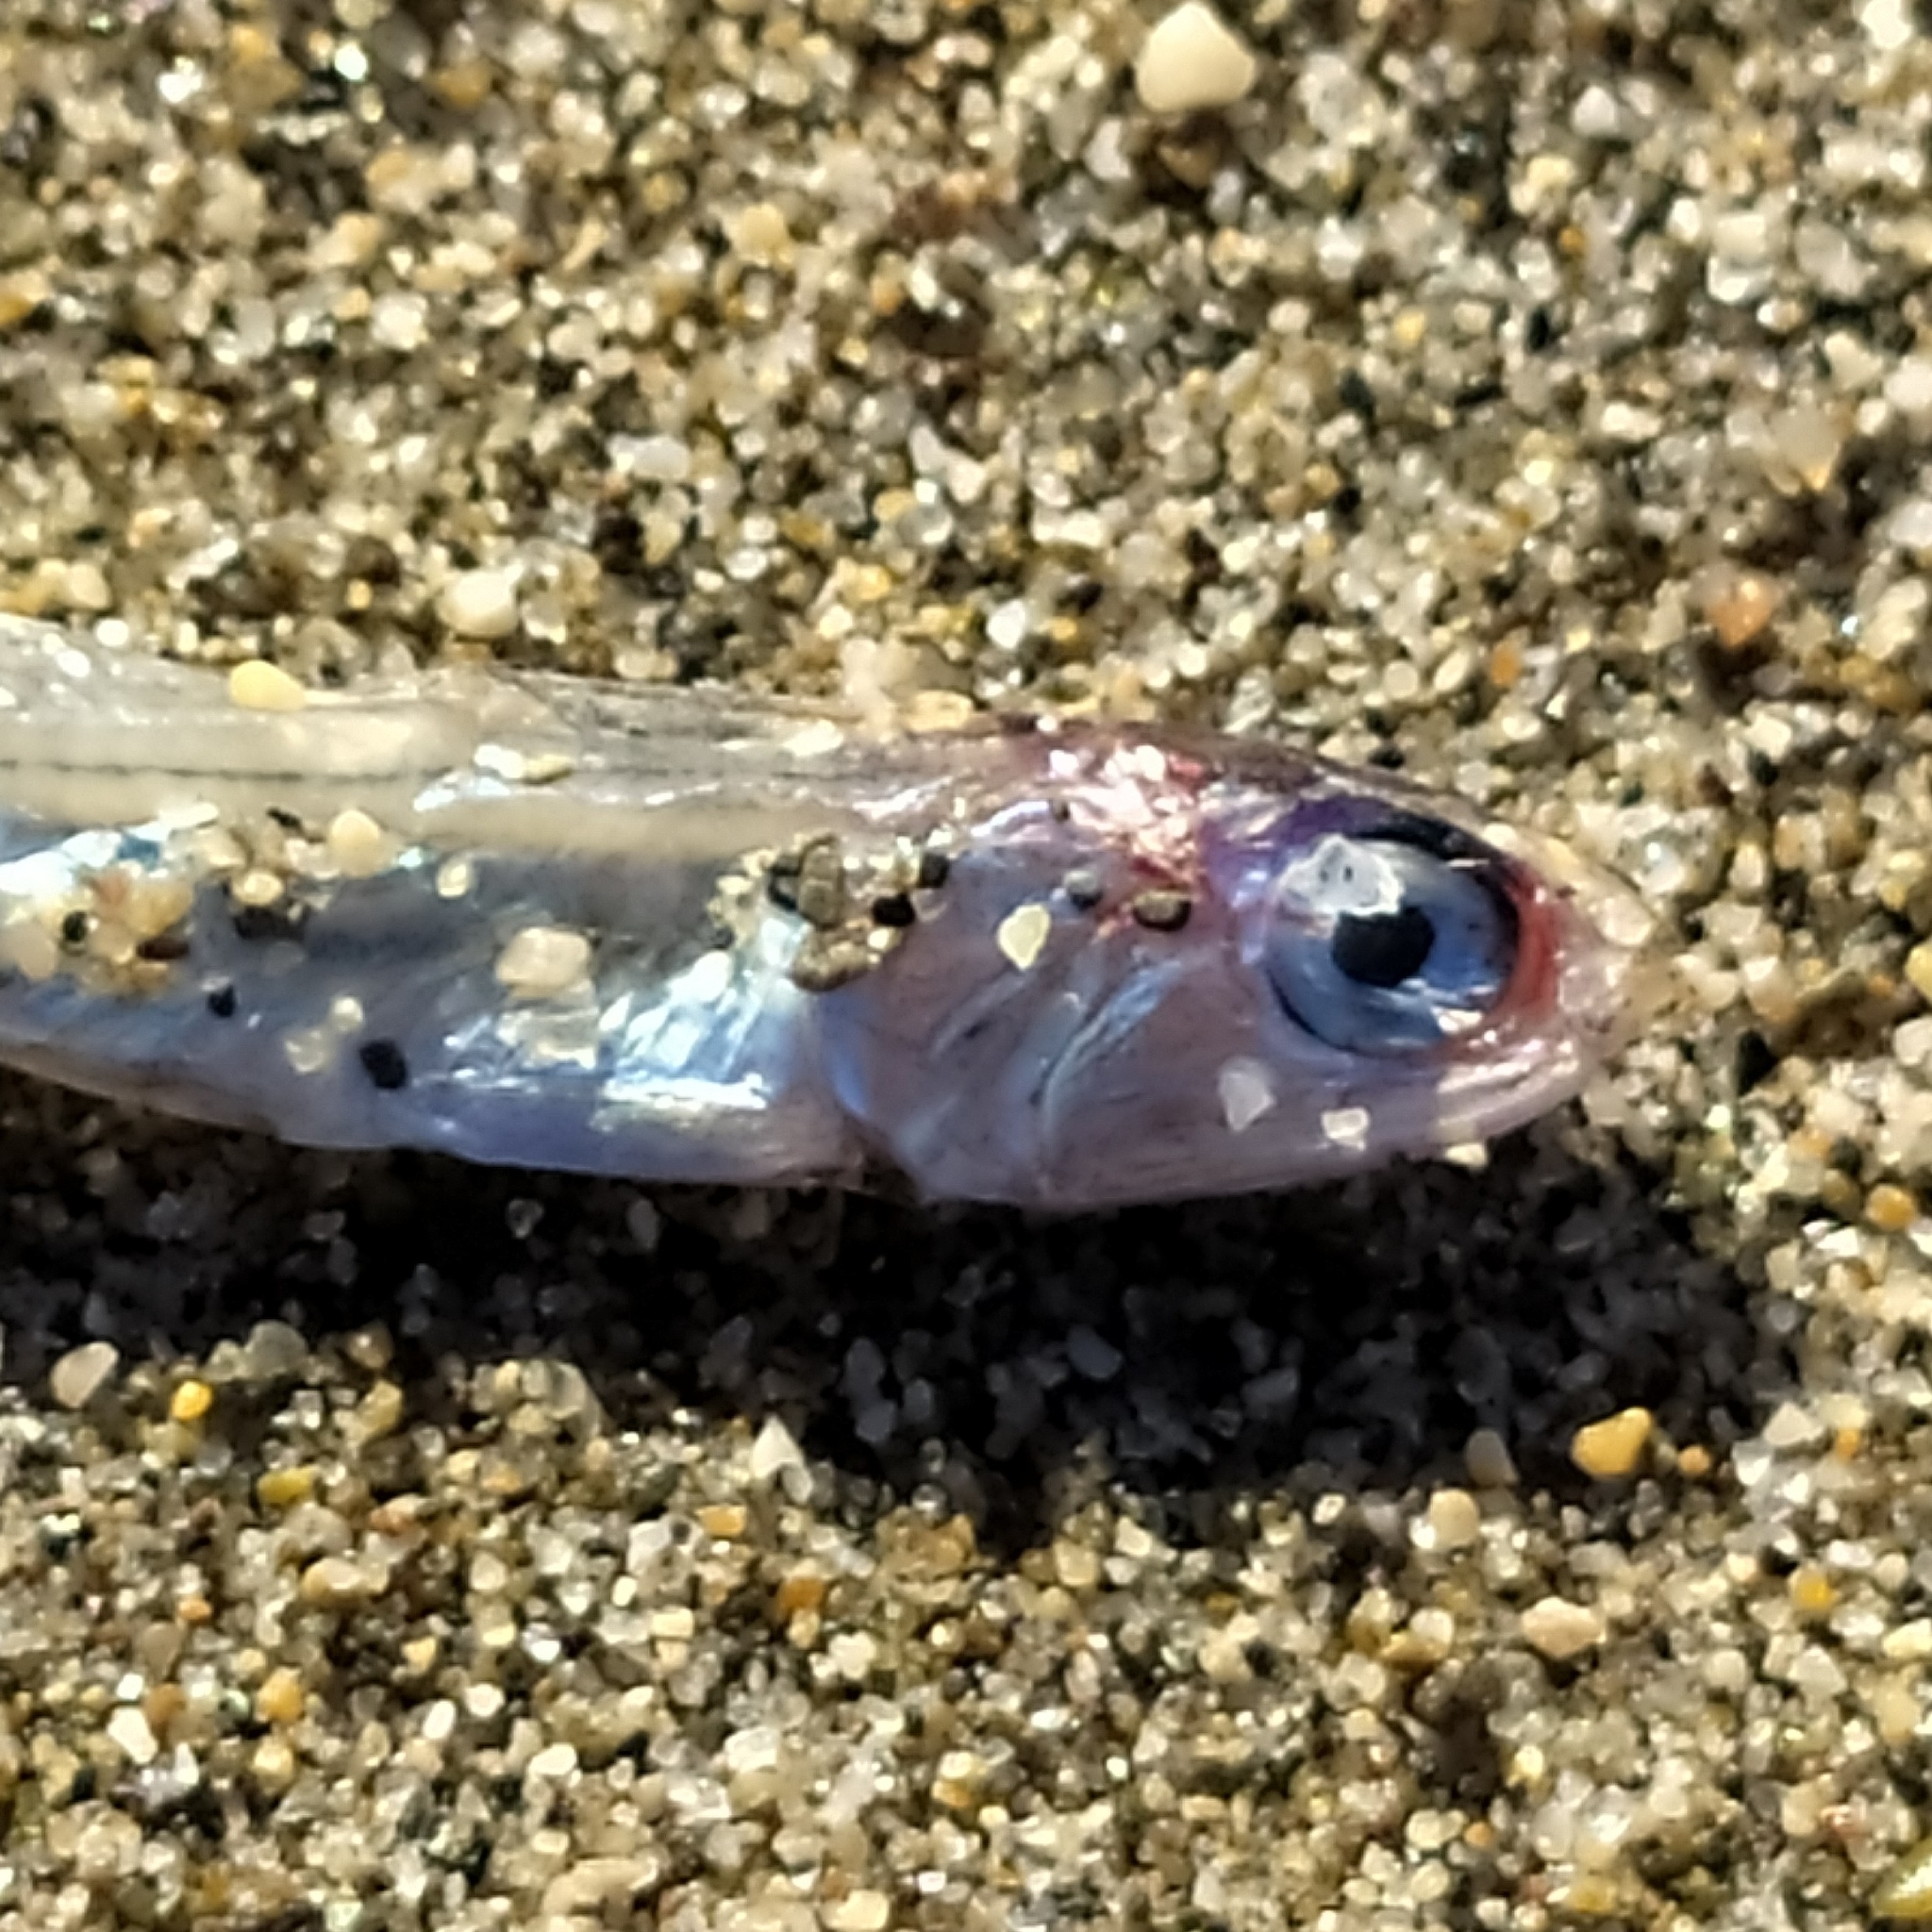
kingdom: Animalia
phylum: Chordata
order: Clupeiformes
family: Engraulidae
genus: Engraulis
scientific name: Engraulis encrasicolus
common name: European anchovy
